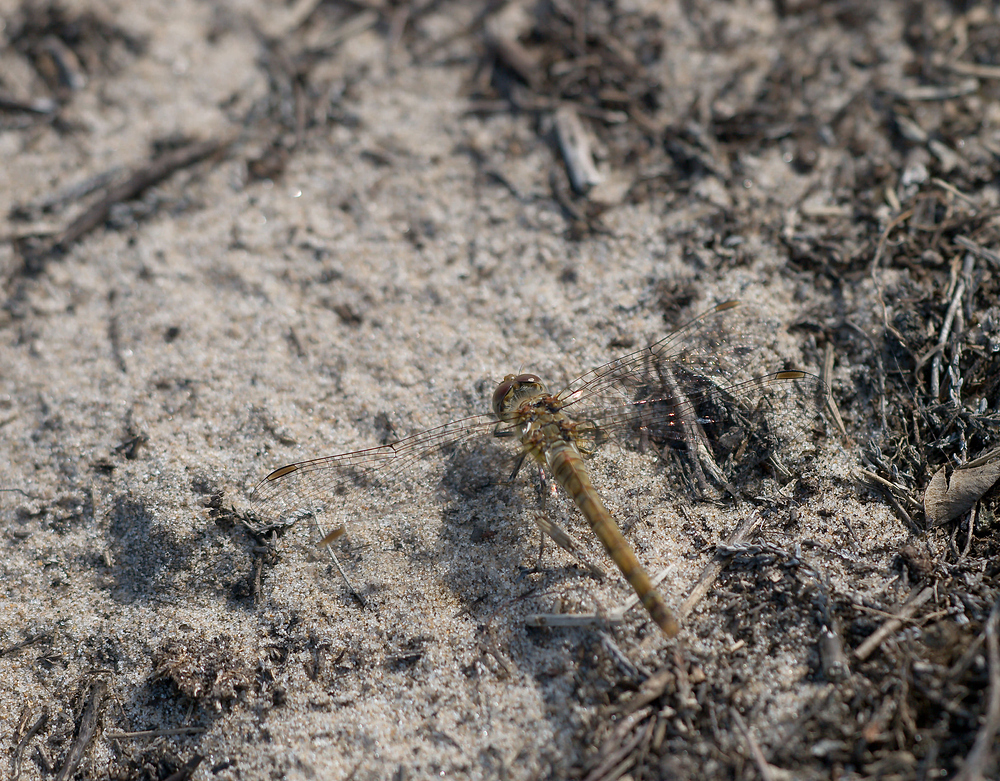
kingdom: Animalia
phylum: Arthropoda
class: Insecta
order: Odonata
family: Libellulidae
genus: Sympetrum
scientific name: Sympetrum striolatum
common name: Common darter
